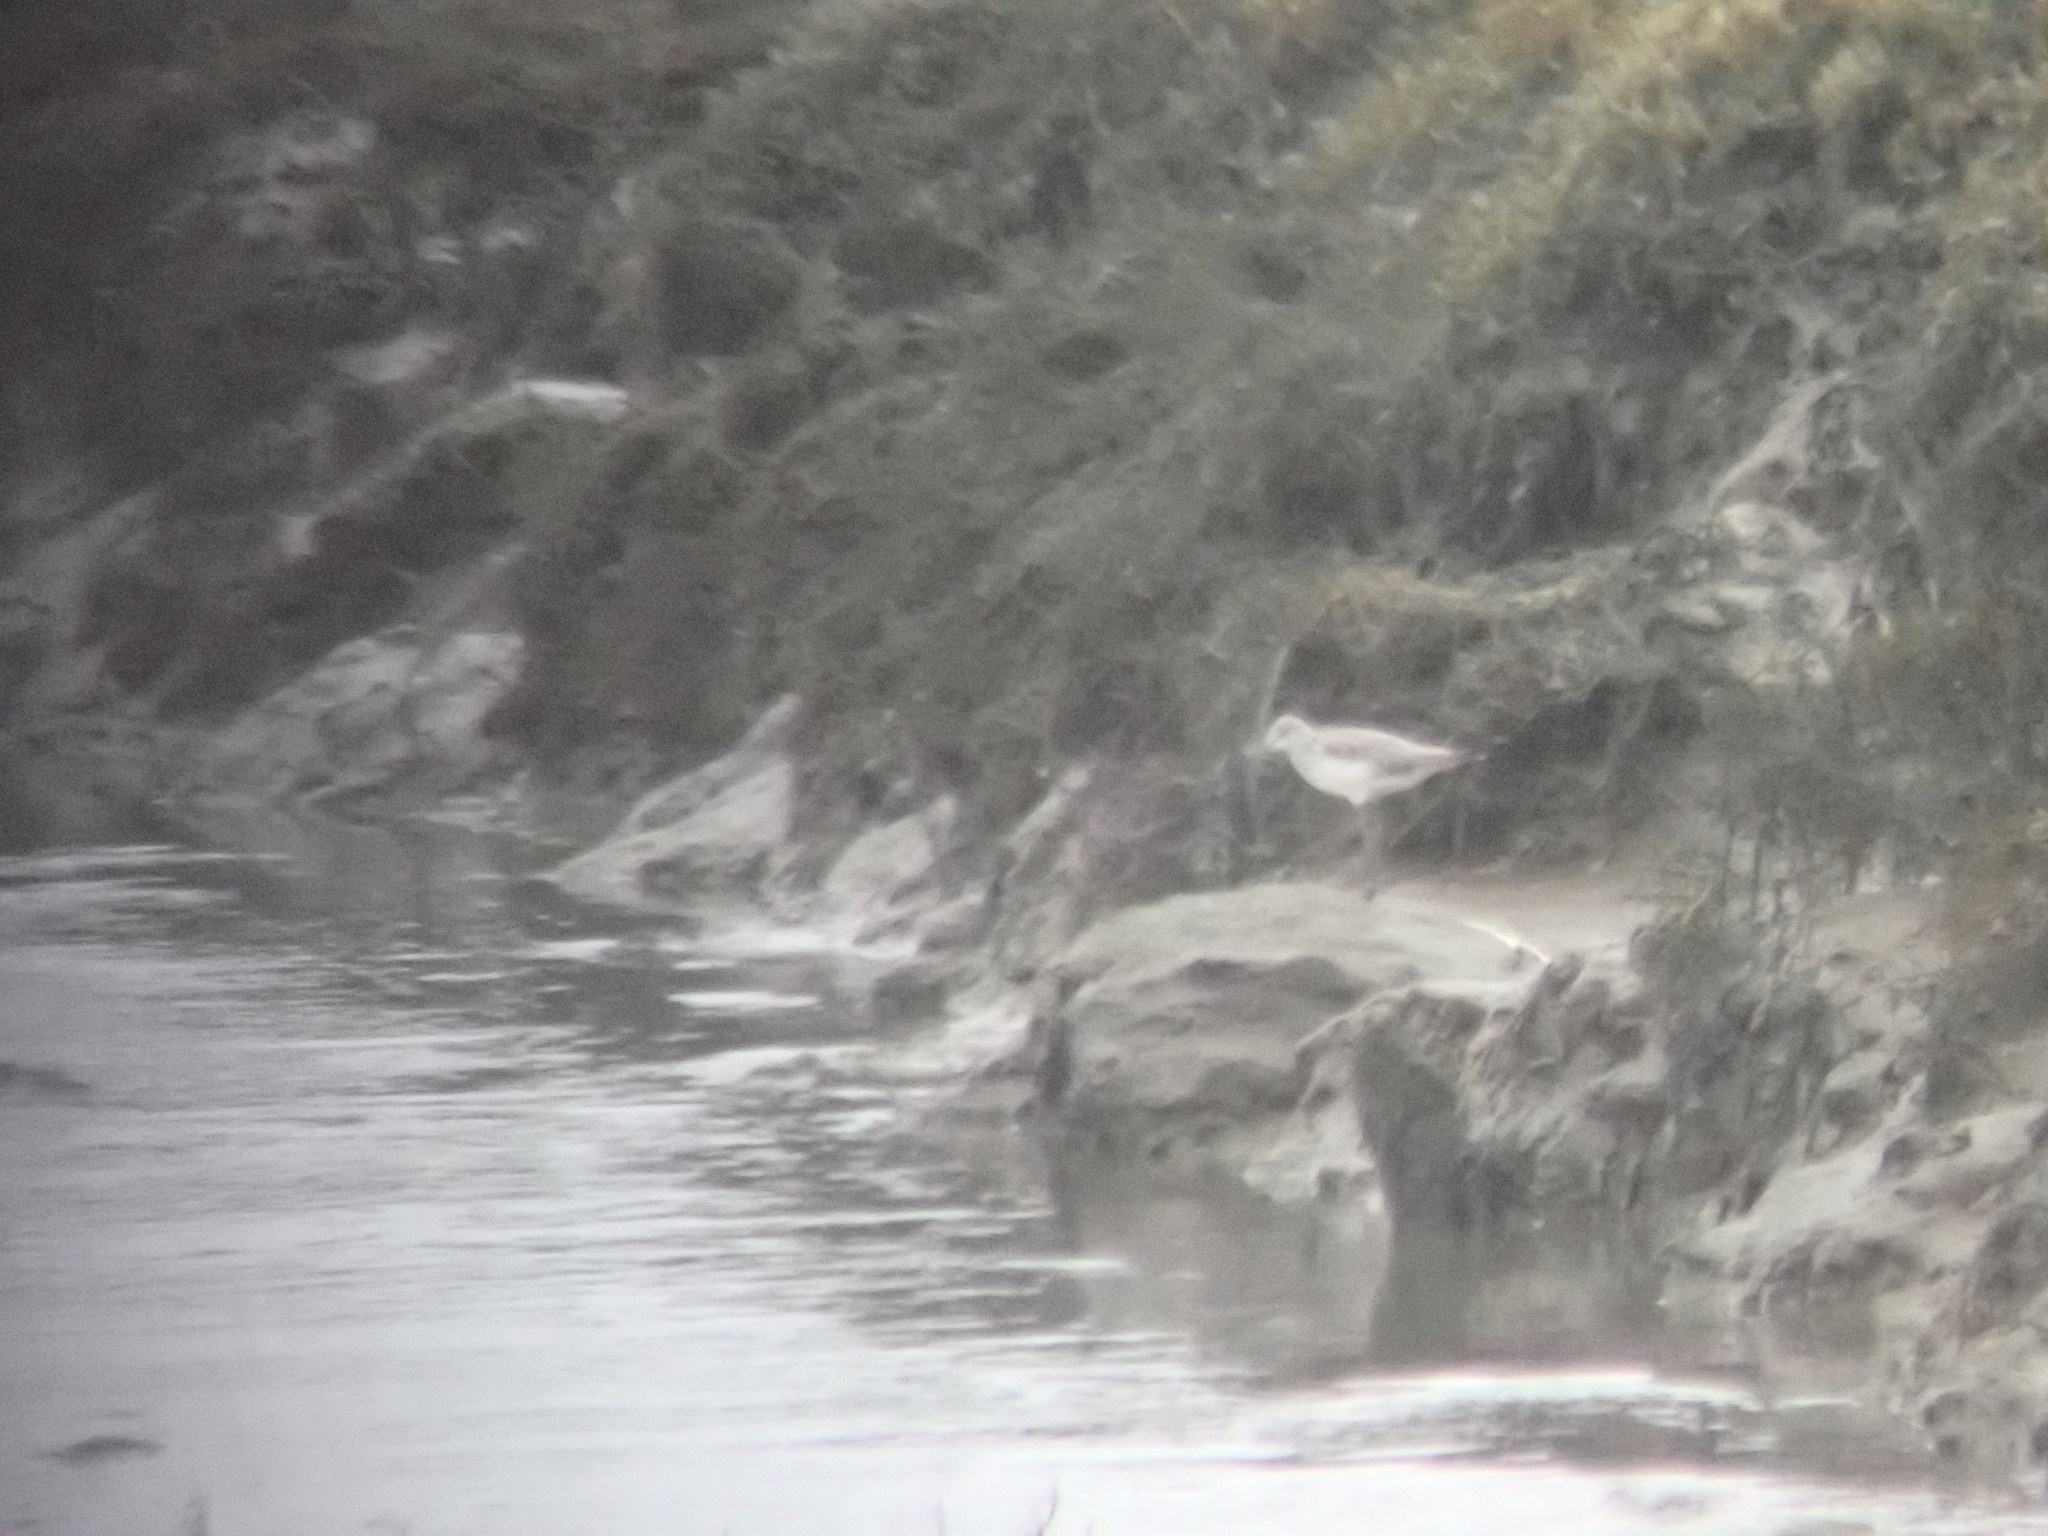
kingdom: Animalia
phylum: Chordata
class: Aves
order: Charadriiformes
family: Scolopacidae
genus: Tringa
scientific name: Tringa nebularia
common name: Common greenshank
